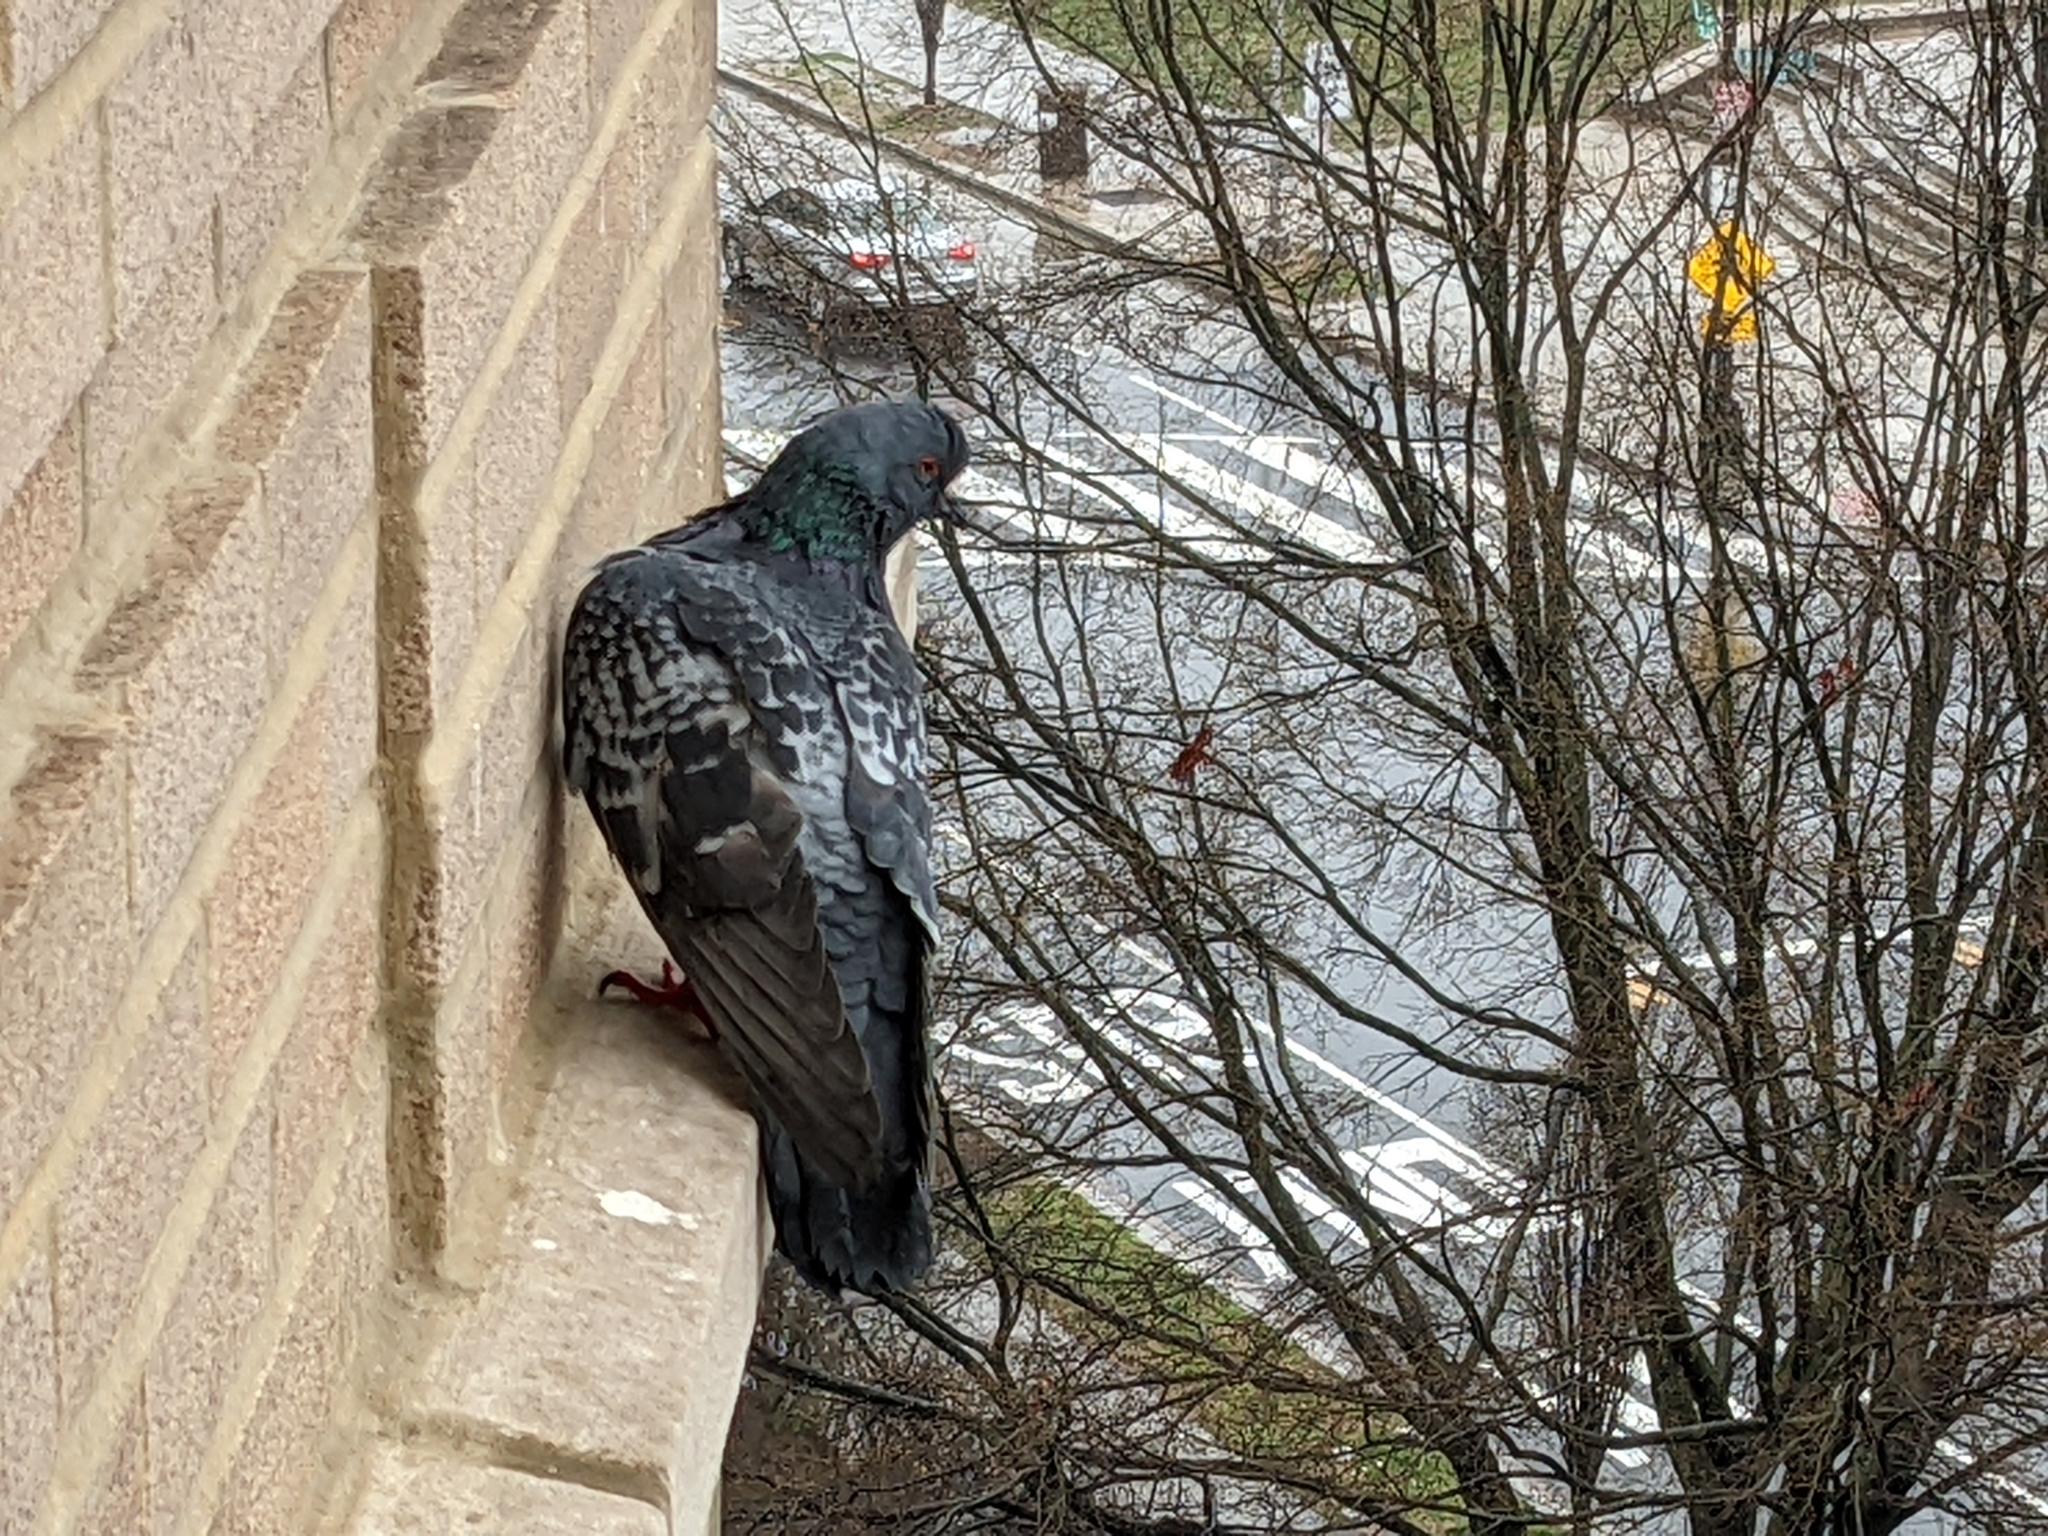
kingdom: Animalia
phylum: Chordata
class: Aves
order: Columbiformes
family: Columbidae
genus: Columba
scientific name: Columba livia
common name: Rock pigeon
